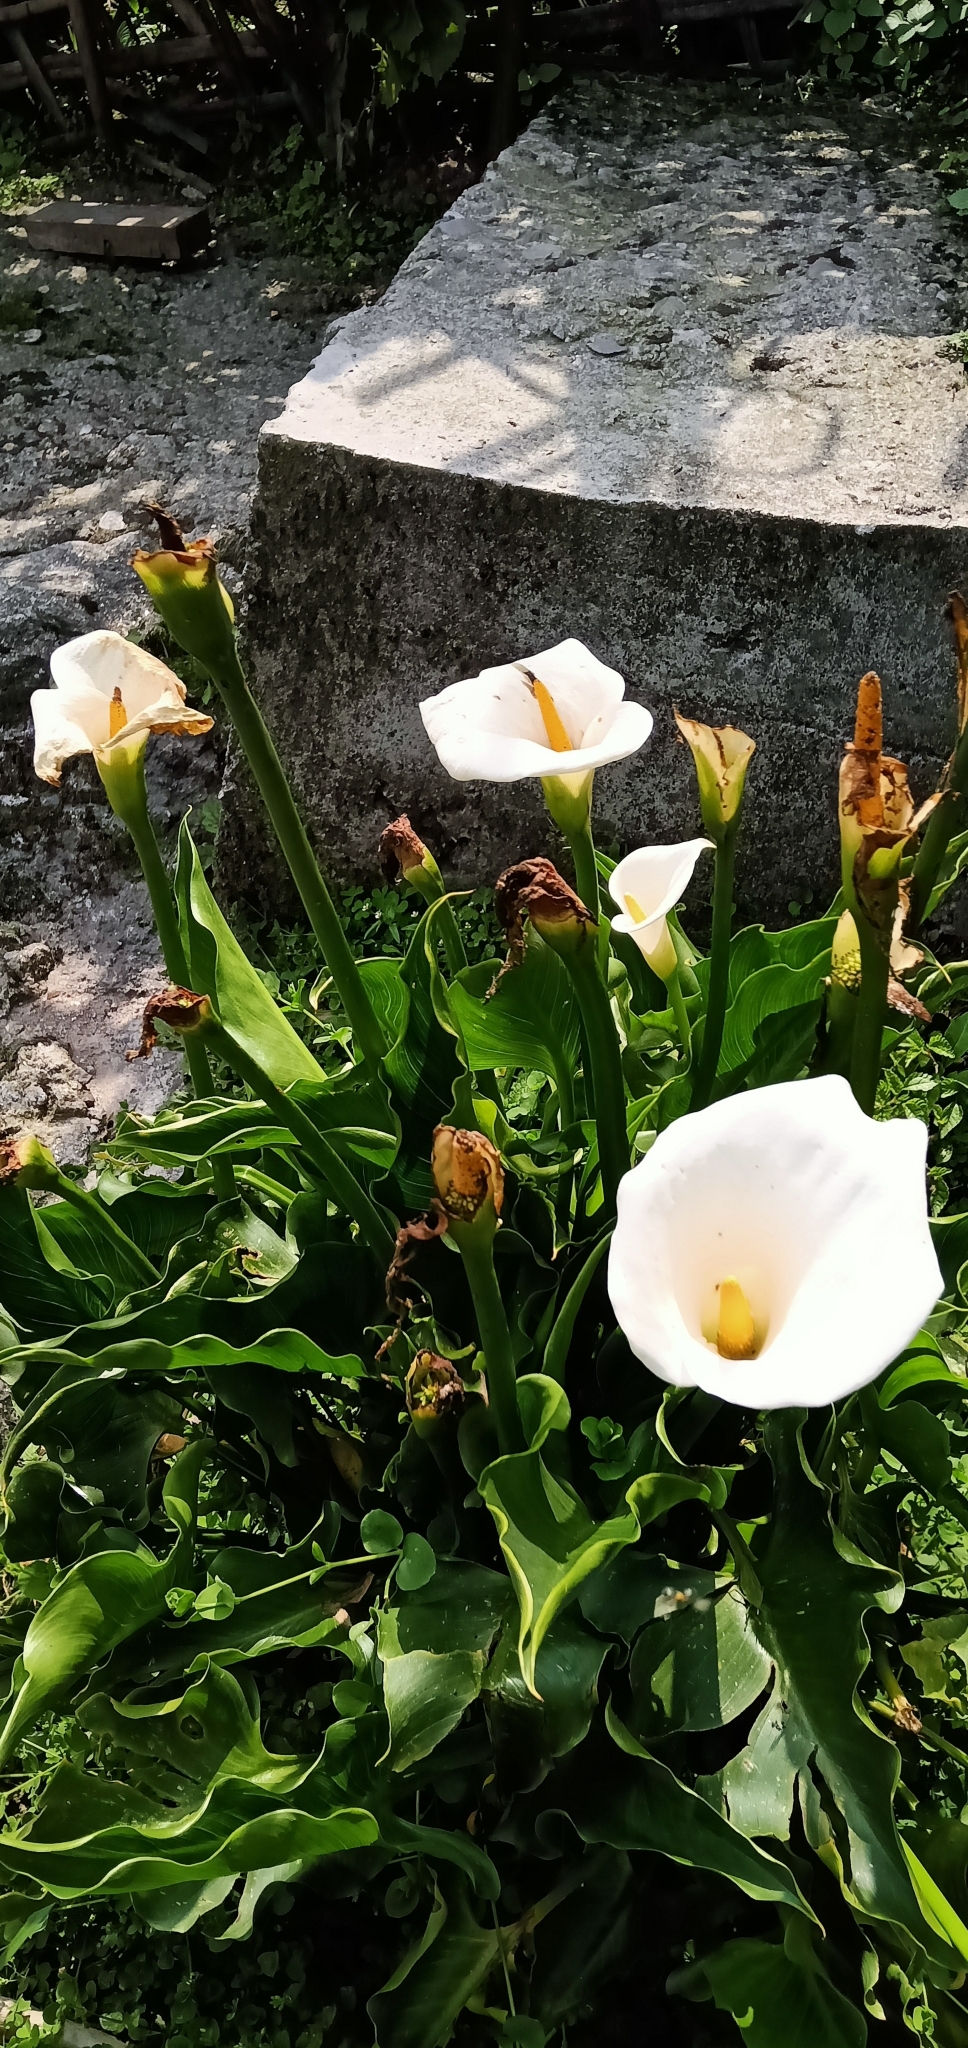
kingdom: Plantae
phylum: Tracheophyta
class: Liliopsida
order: Alismatales
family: Araceae
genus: Zantedeschia
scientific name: Zantedeschia aethiopica
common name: Altar-lily
